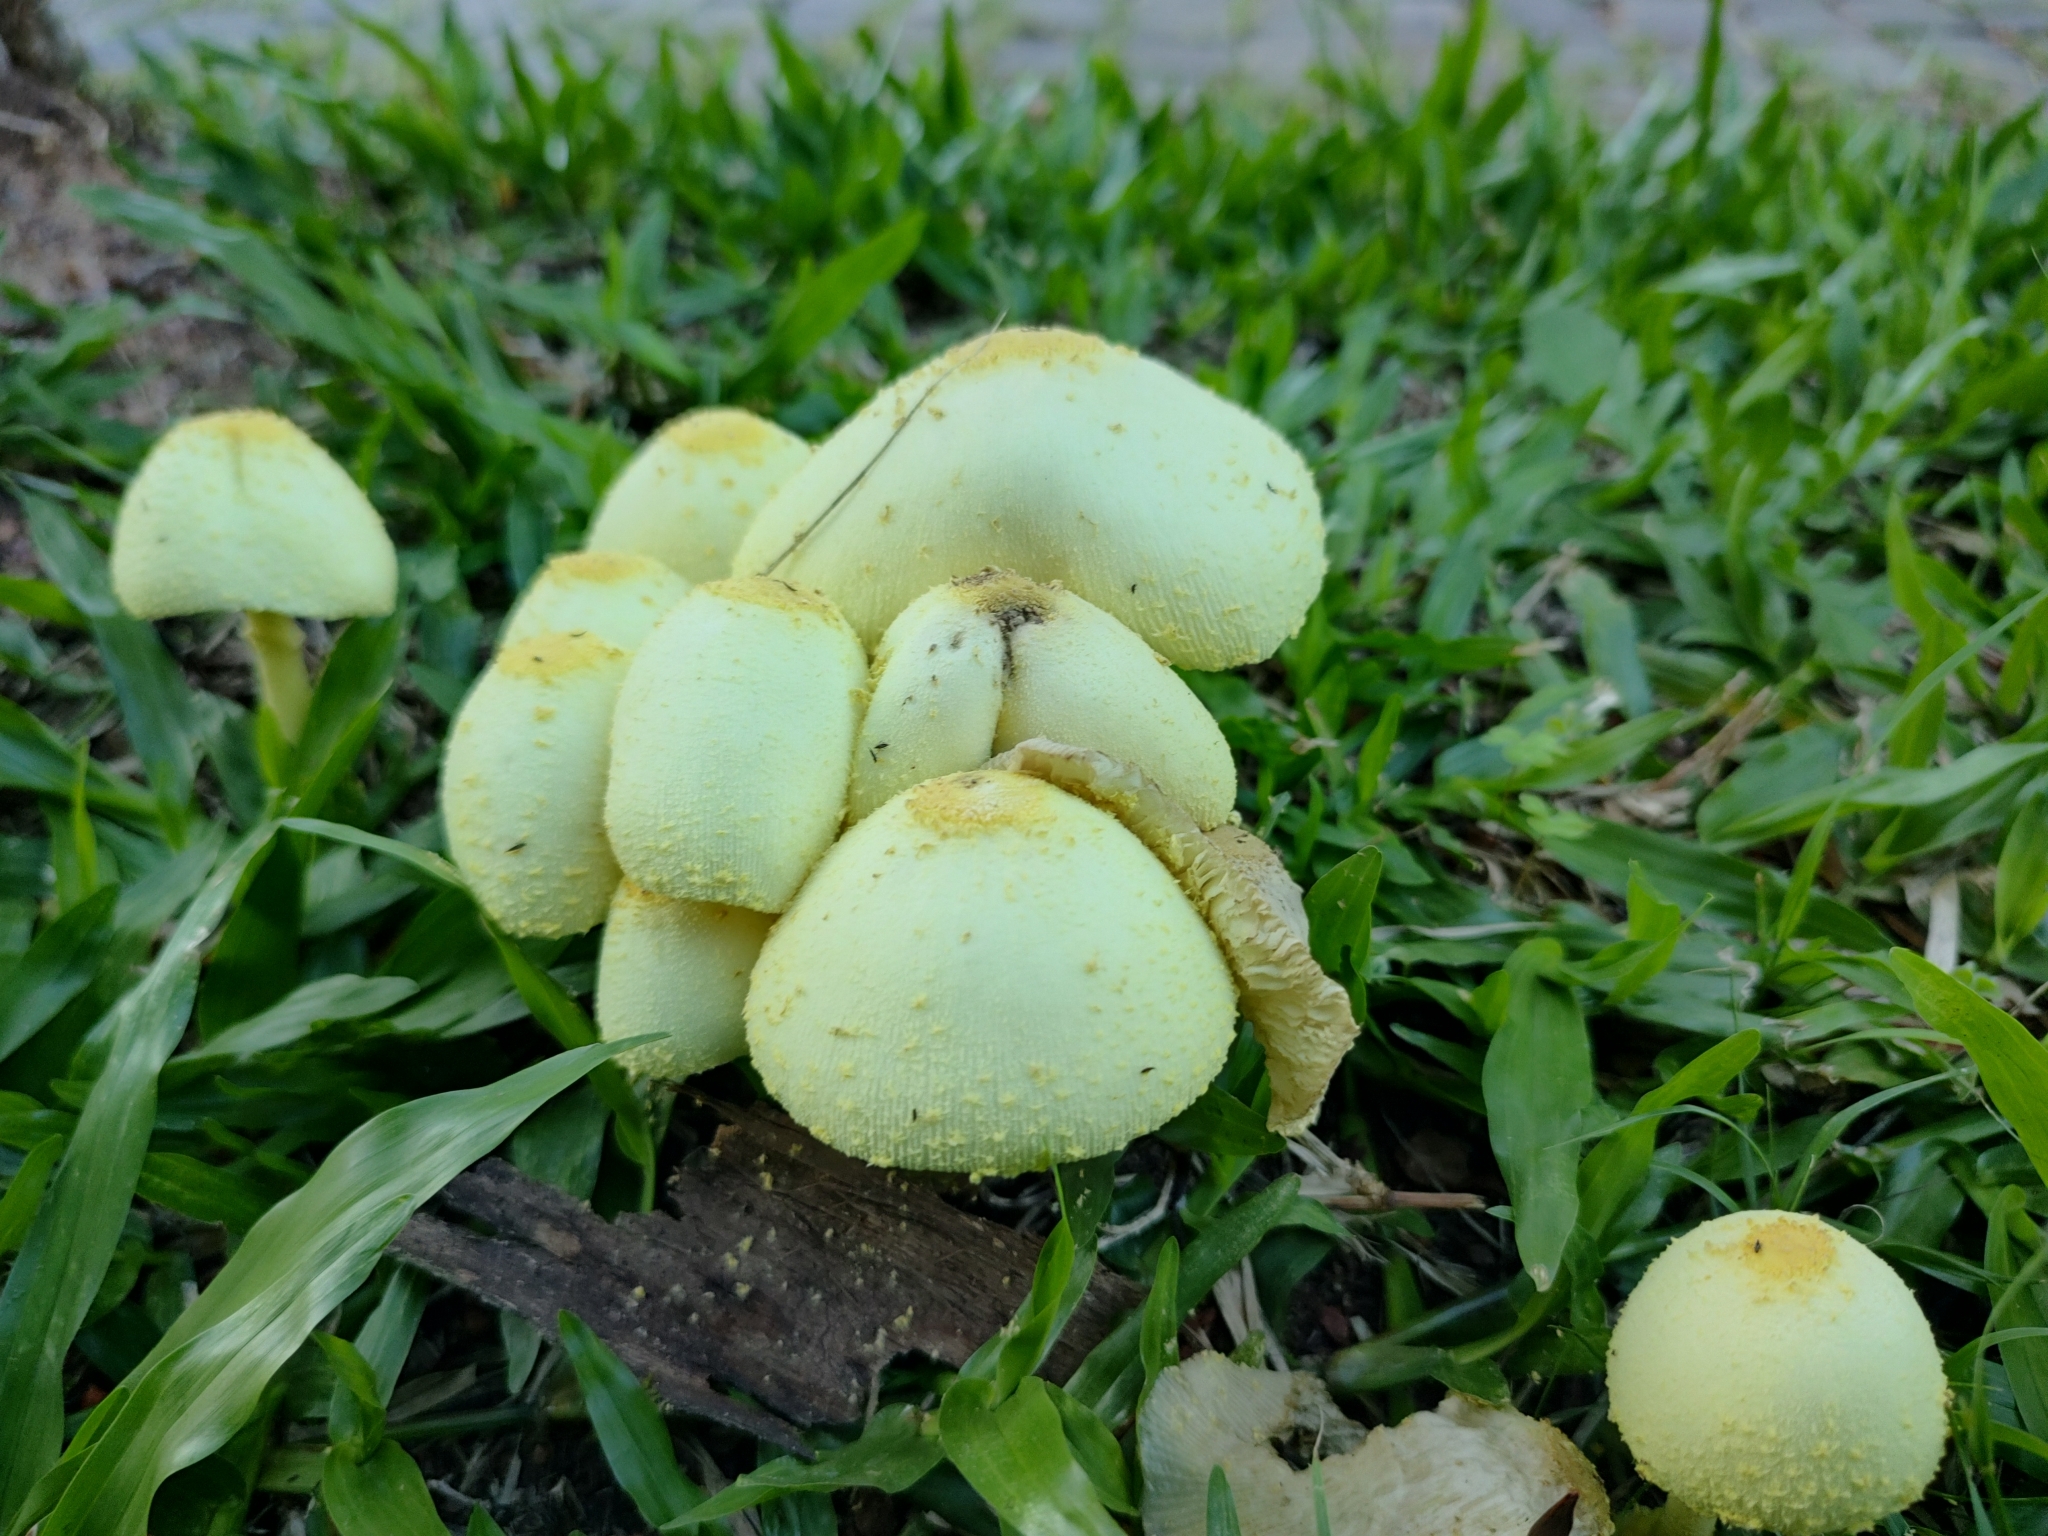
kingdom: Fungi
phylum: Basidiomycota
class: Agaricomycetes
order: Agaricales
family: Agaricaceae
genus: Leucocoprinus
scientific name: Leucocoprinus birnbaumii
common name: Plantpot dapperling
